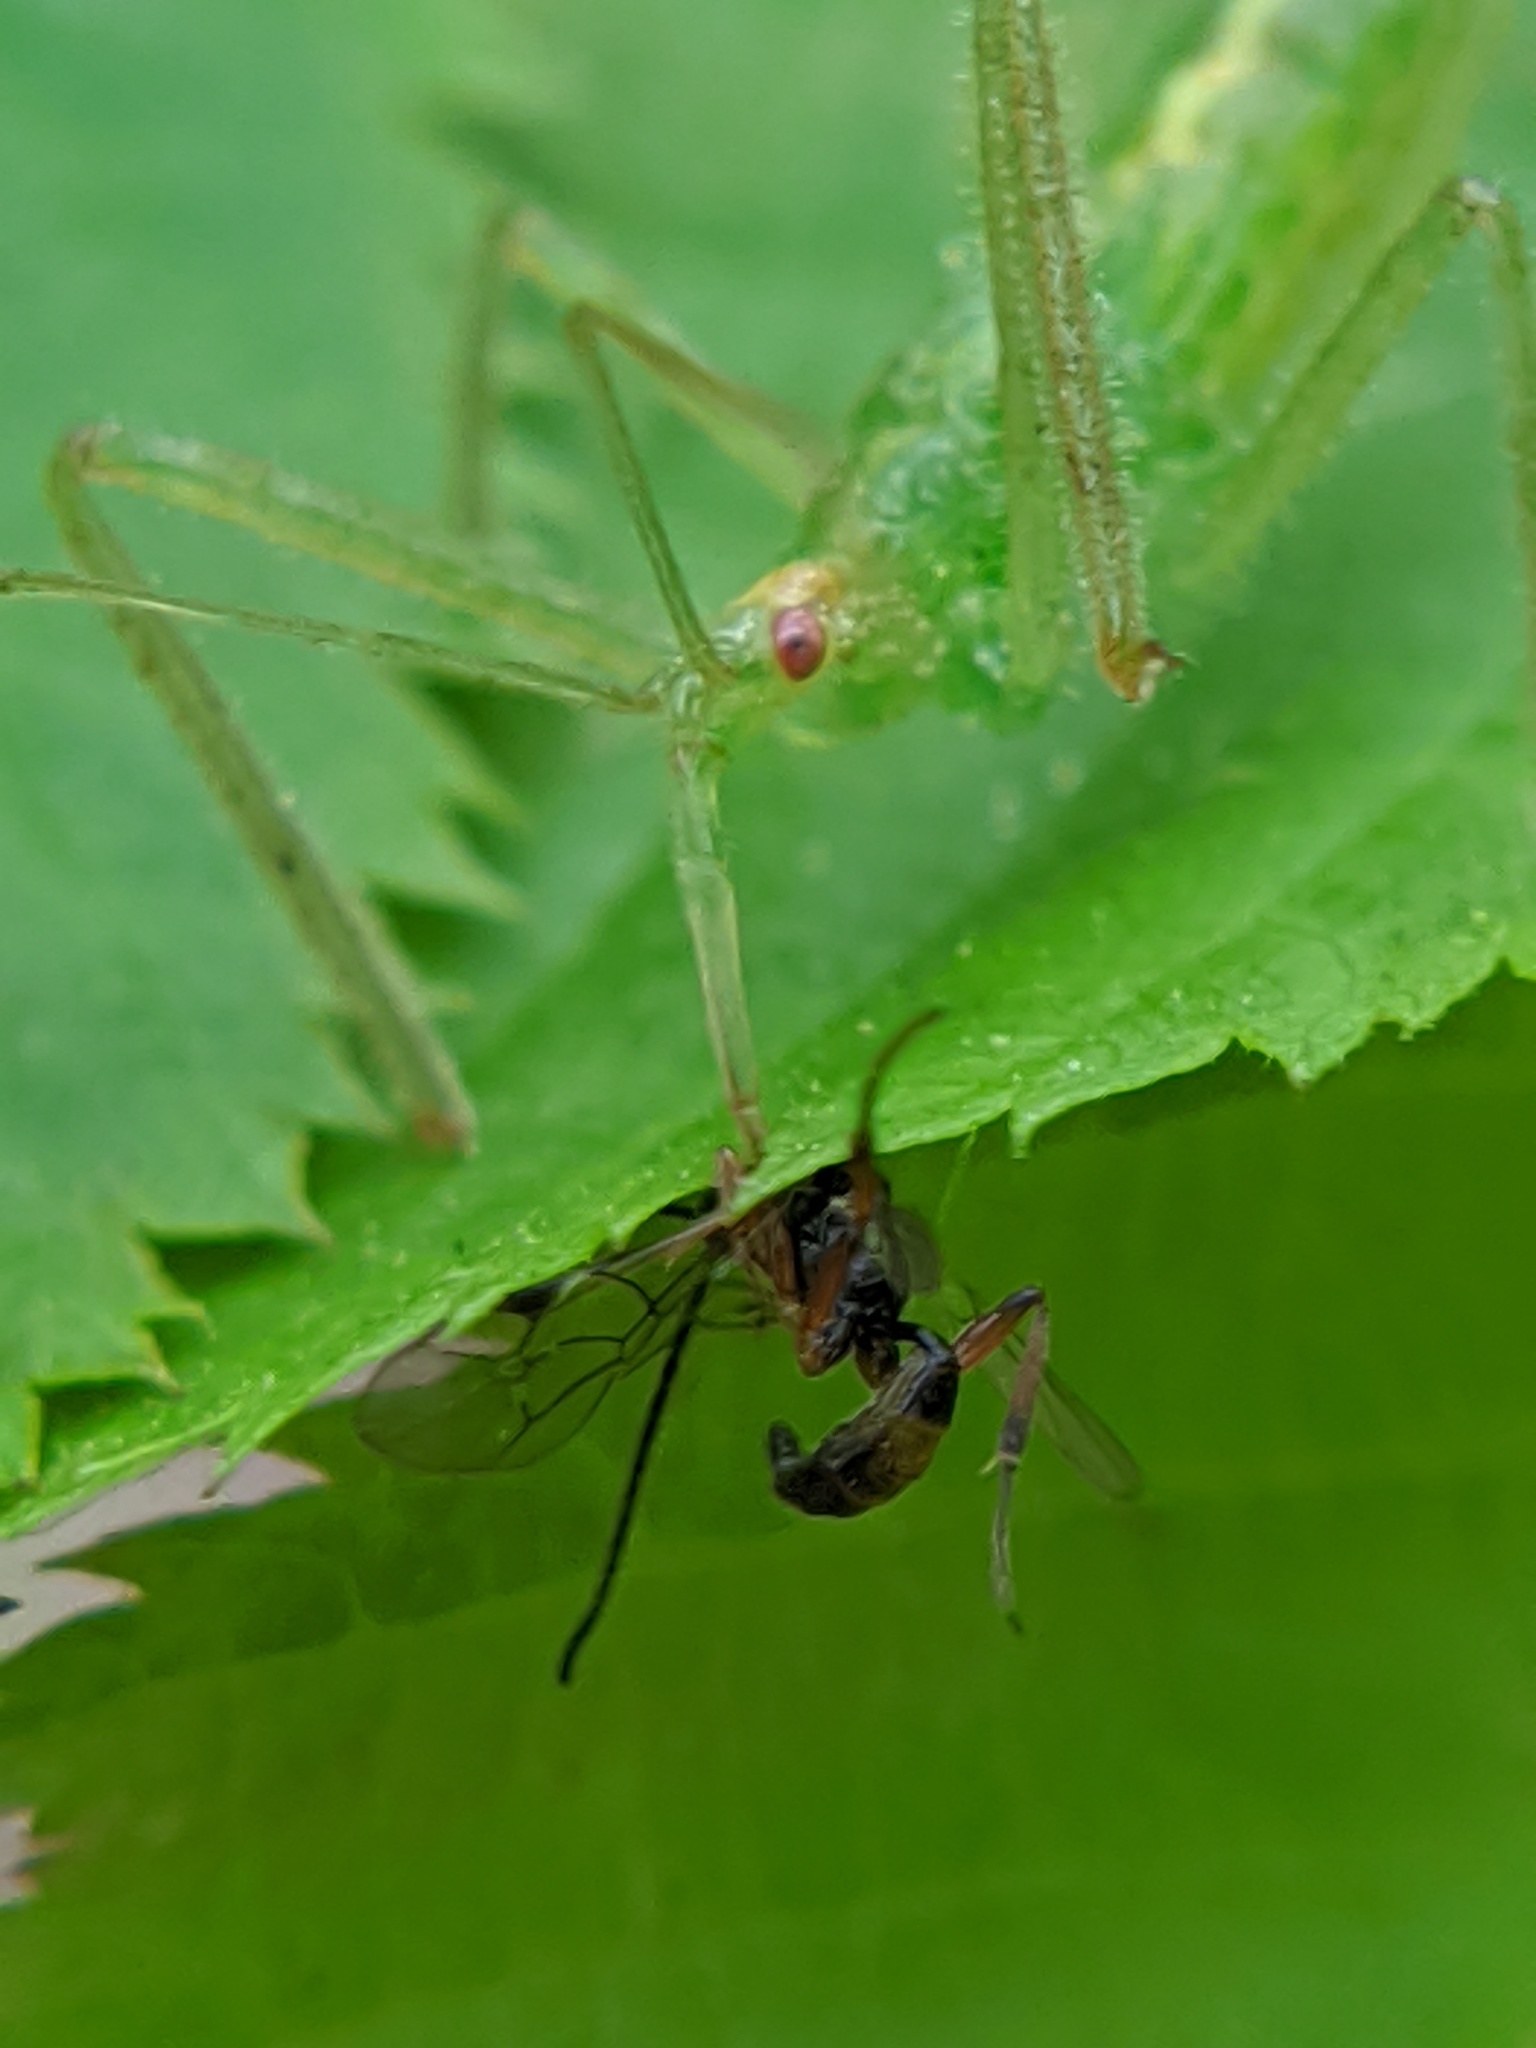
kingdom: Animalia
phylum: Arthropoda
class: Insecta
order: Hemiptera
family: Reduviidae
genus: Zelus
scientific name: Zelus luridus
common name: Pale green assassin bug
